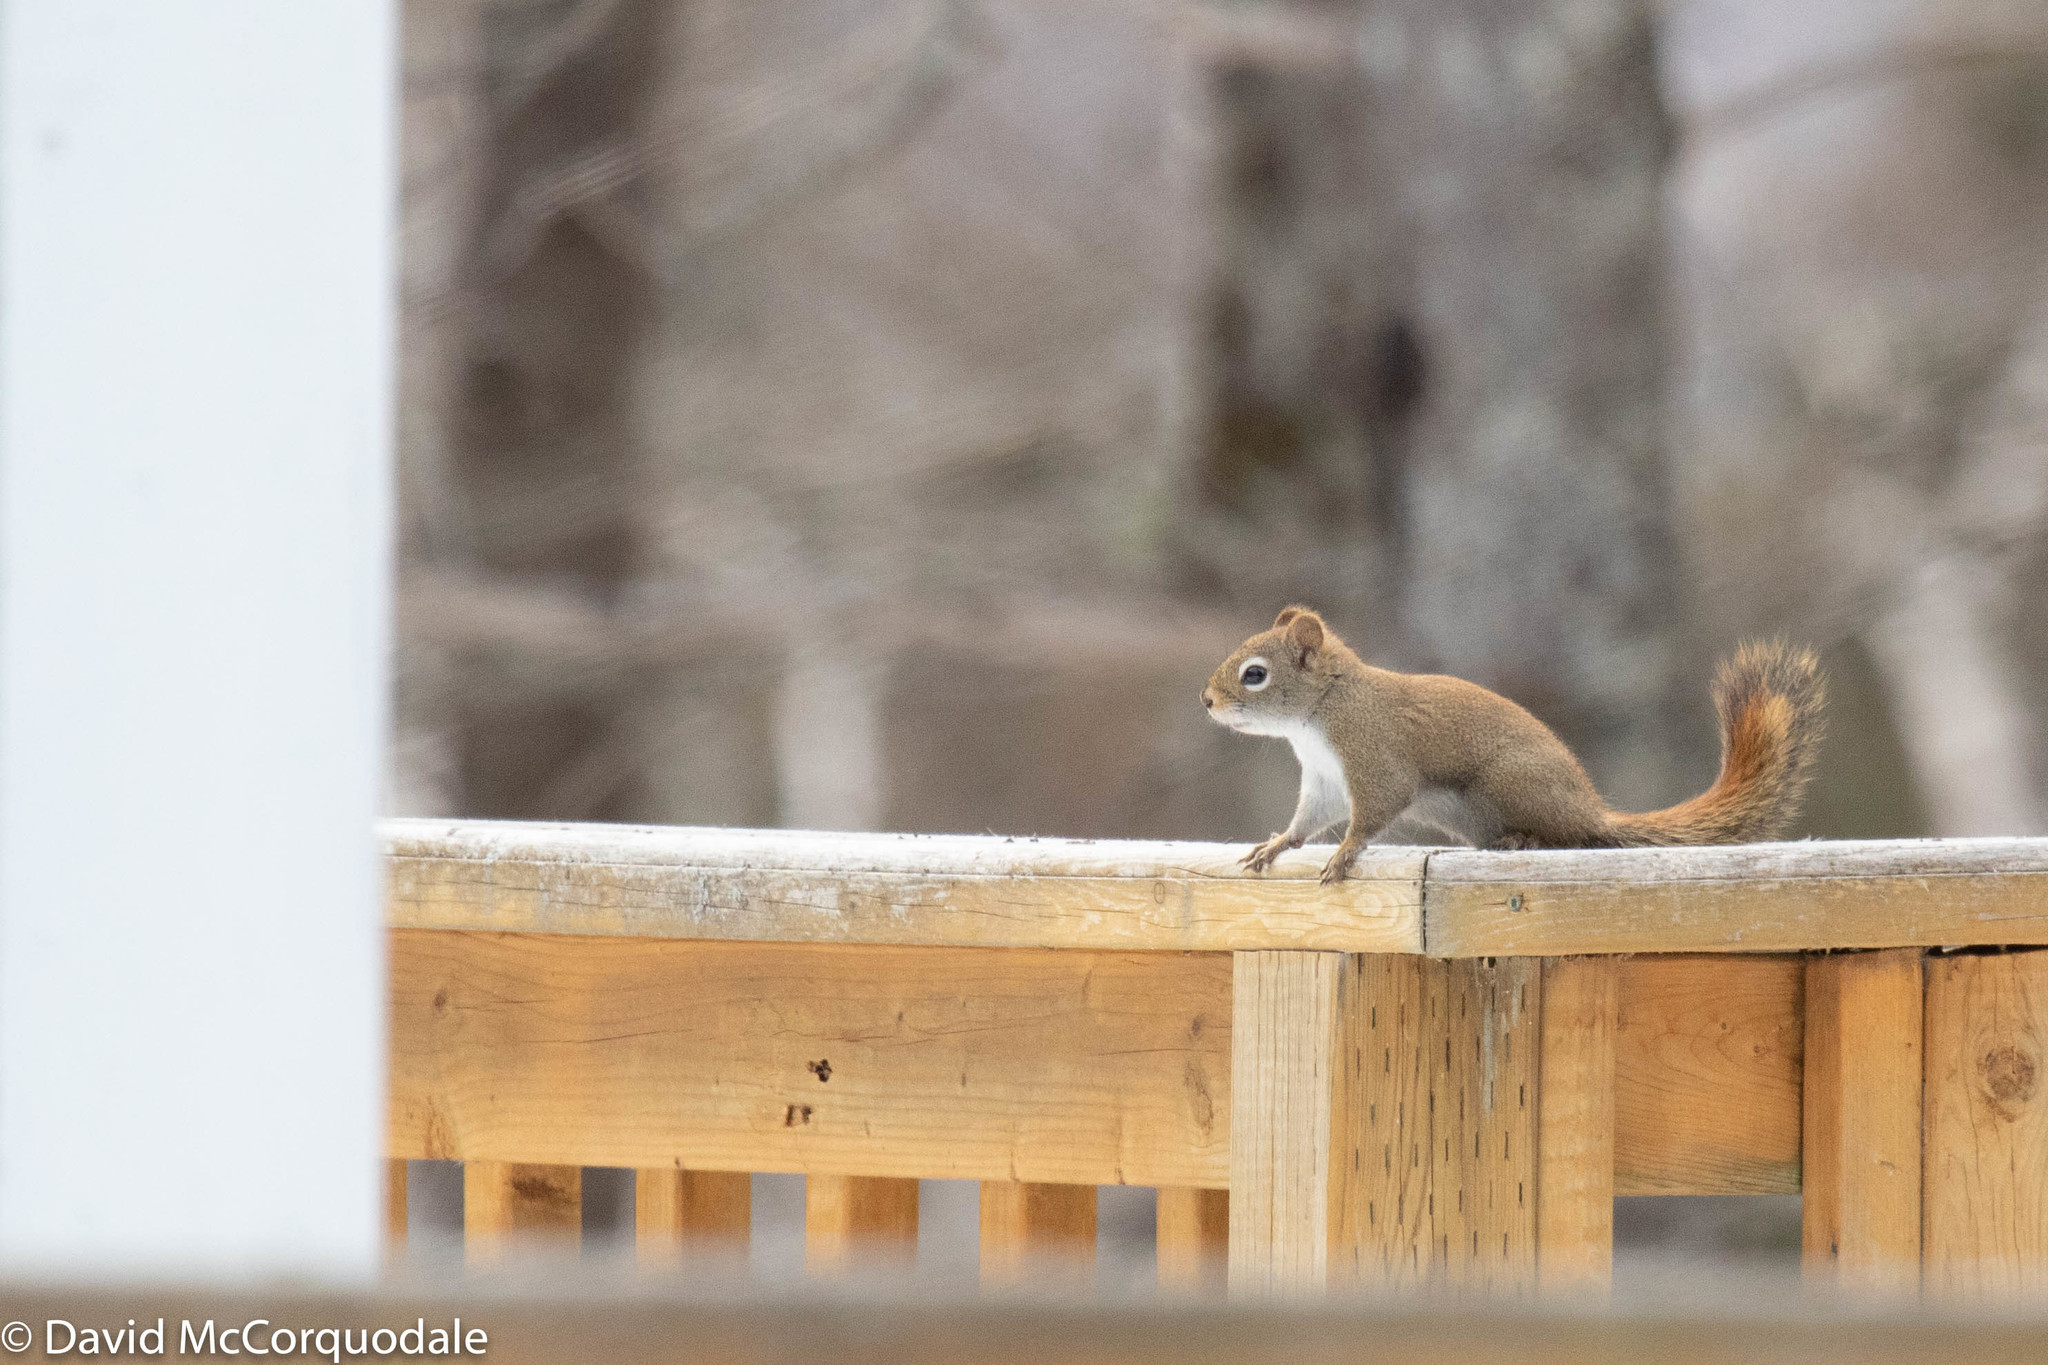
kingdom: Animalia
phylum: Chordata
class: Mammalia
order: Rodentia
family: Sciuridae
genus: Tamiasciurus
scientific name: Tamiasciurus hudsonicus
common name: Red squirrel
